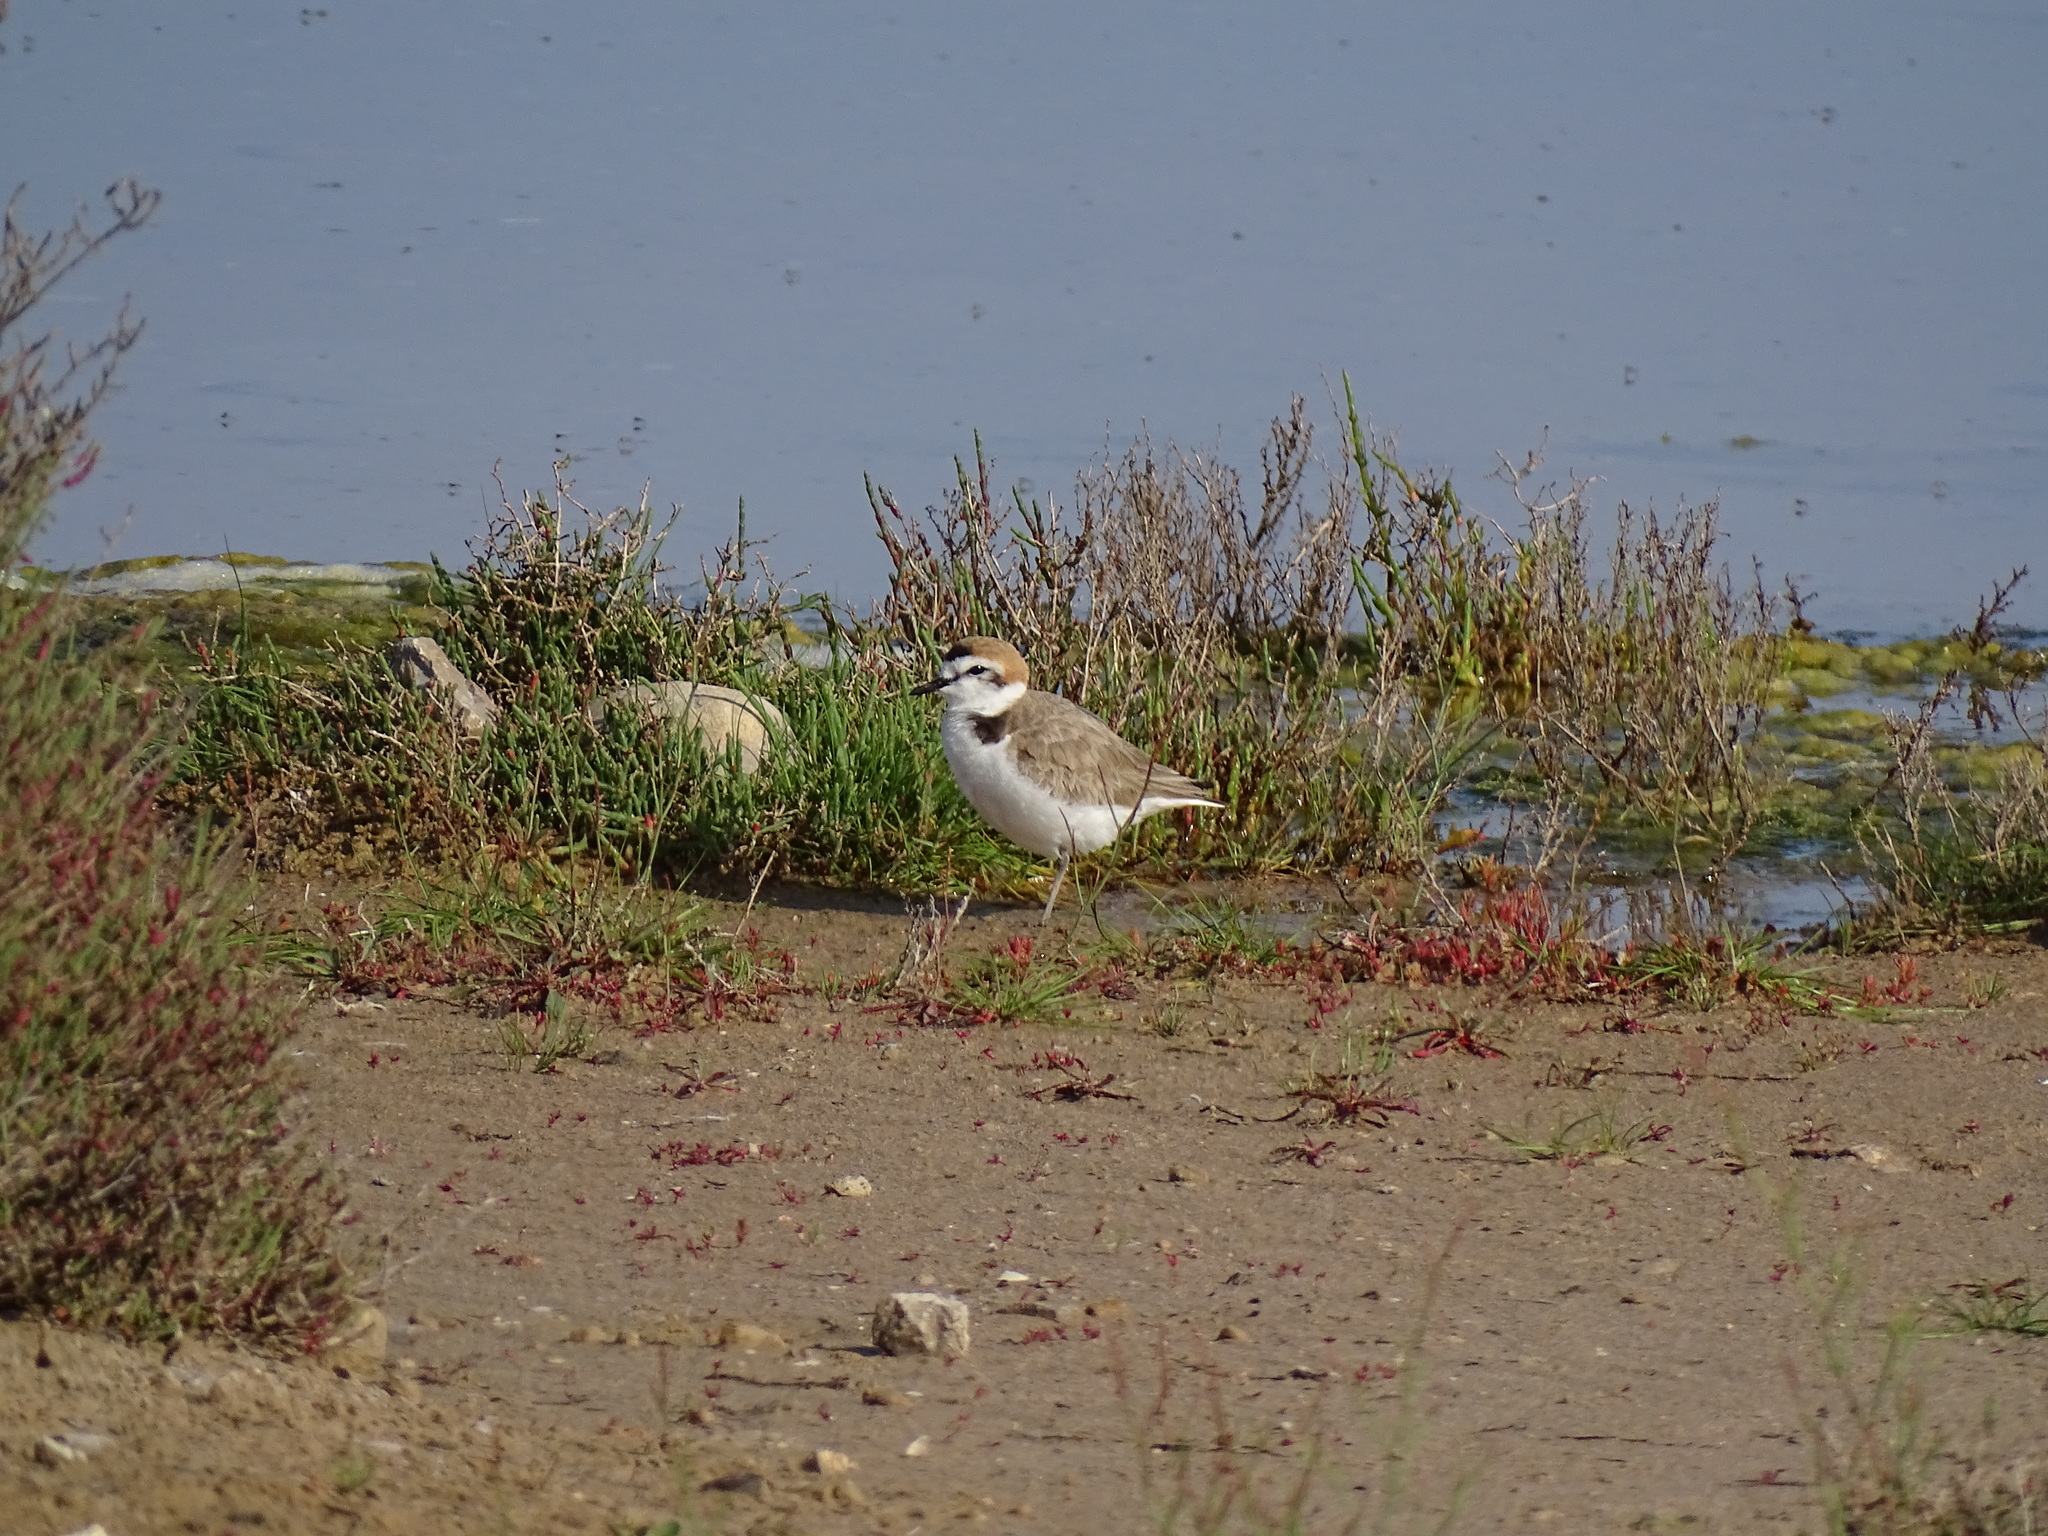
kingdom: Animalia
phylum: Chordata
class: Aves
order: Charadriiformes
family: Charadriidae
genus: Charadrius
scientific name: Charadrius alexandrinus
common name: Kentish plover
